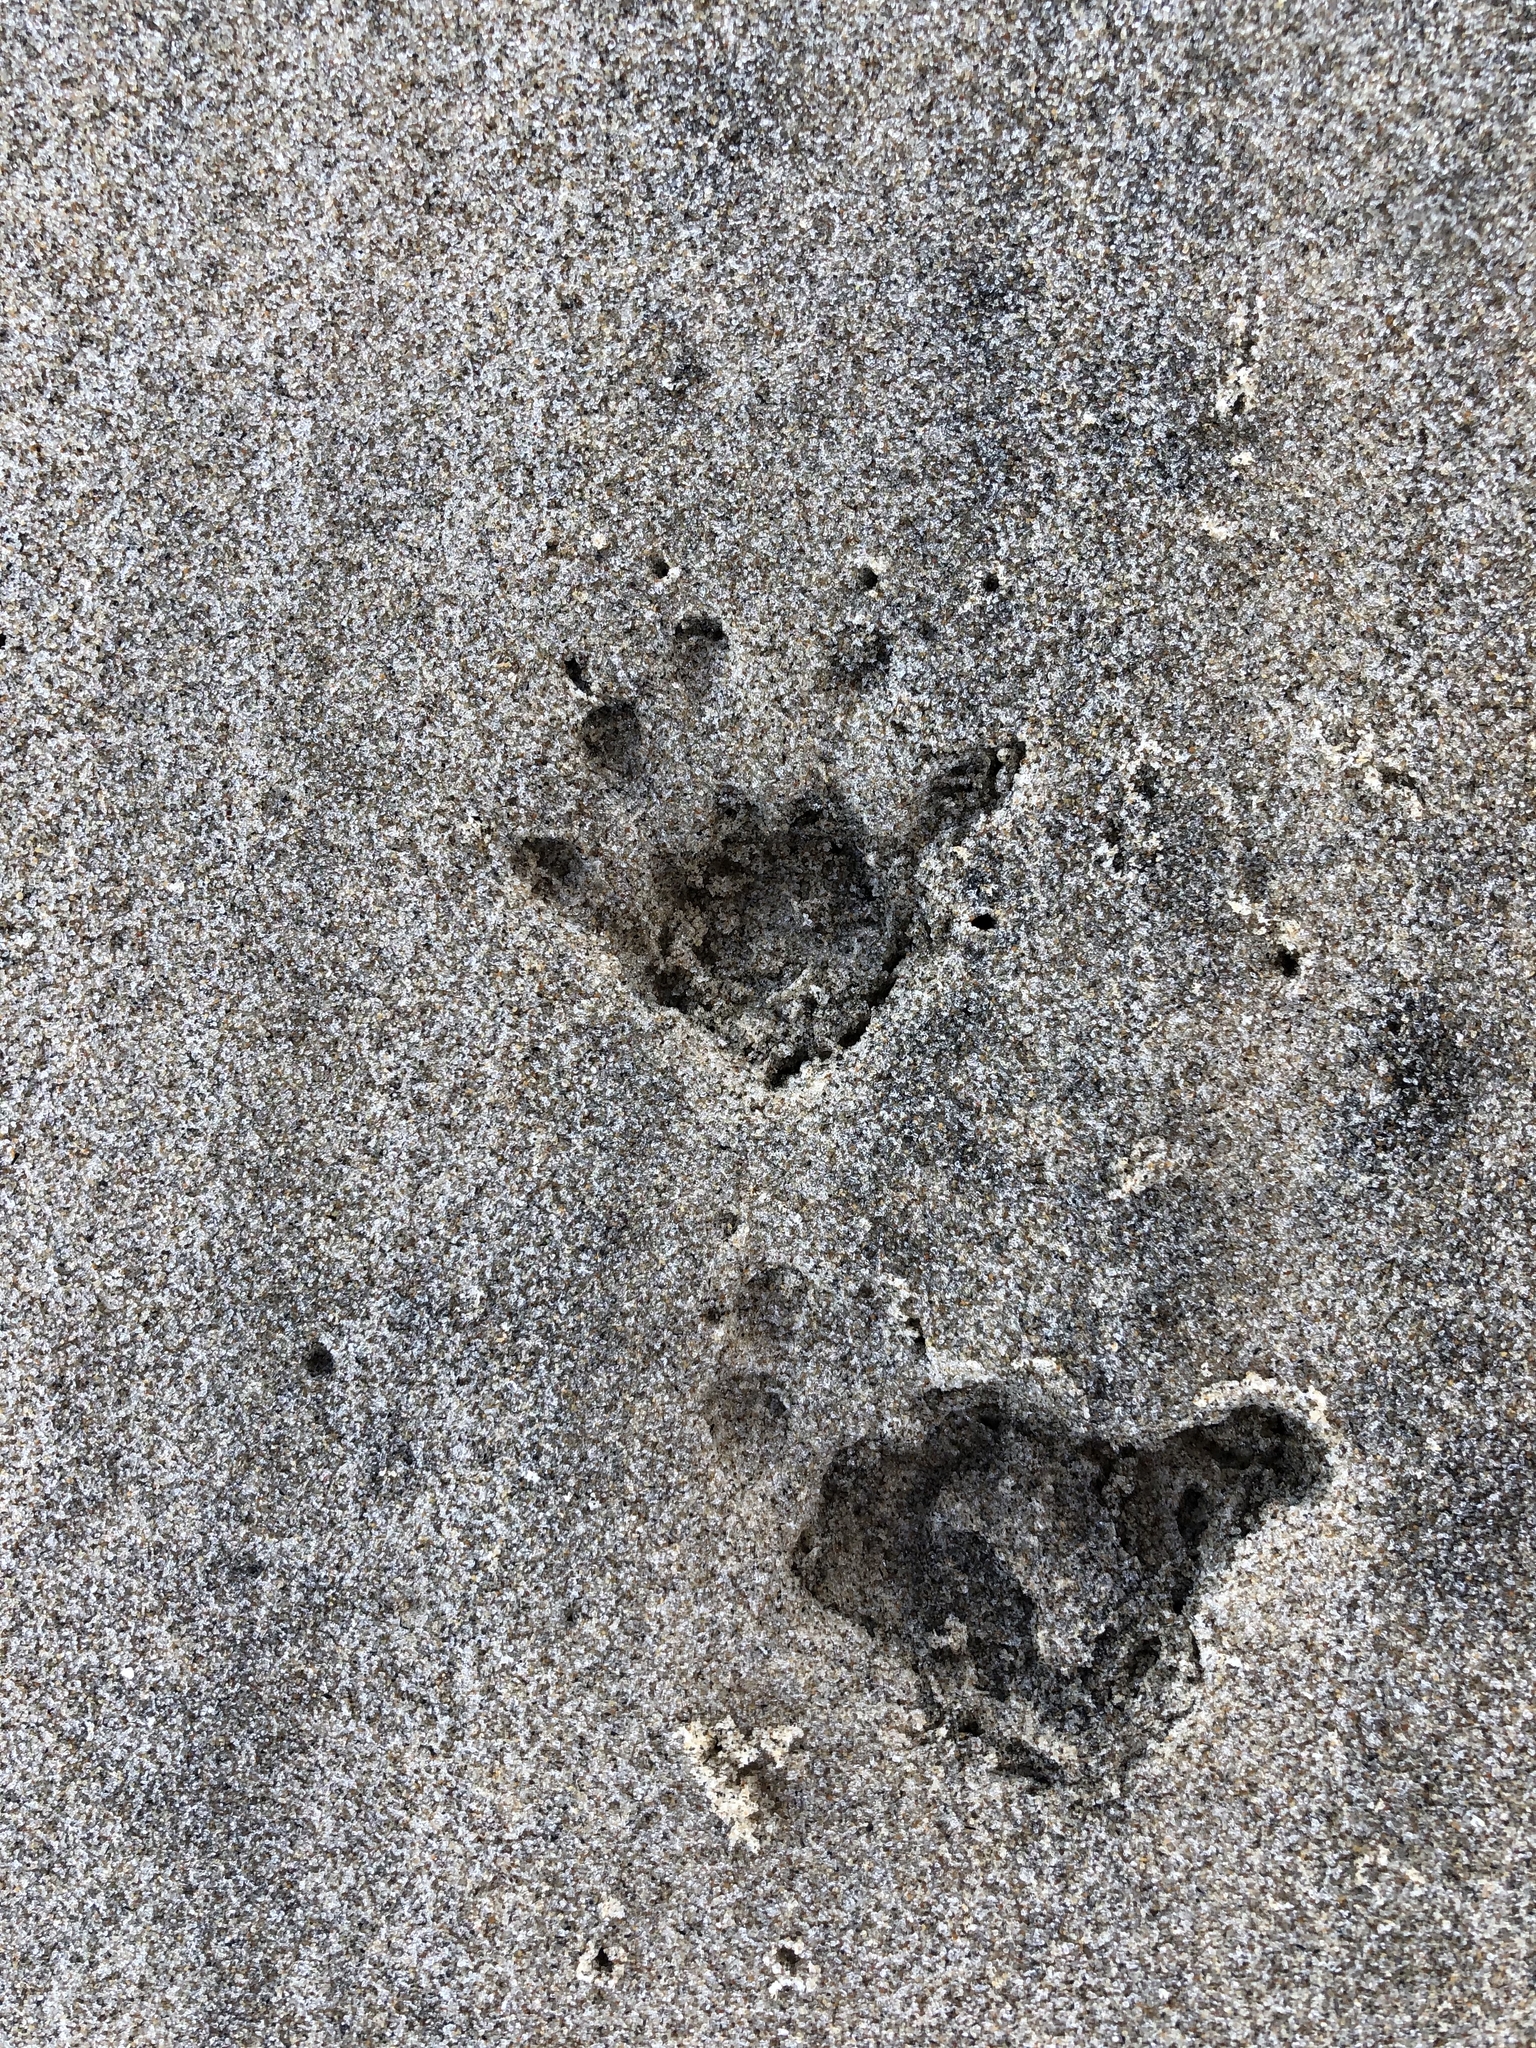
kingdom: Animalia
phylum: Chordata
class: Mammalia
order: Diprotodontia
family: Phalangeridae
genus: Trichosurus
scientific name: Trichosurus vulpecula
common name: Common brushtail
